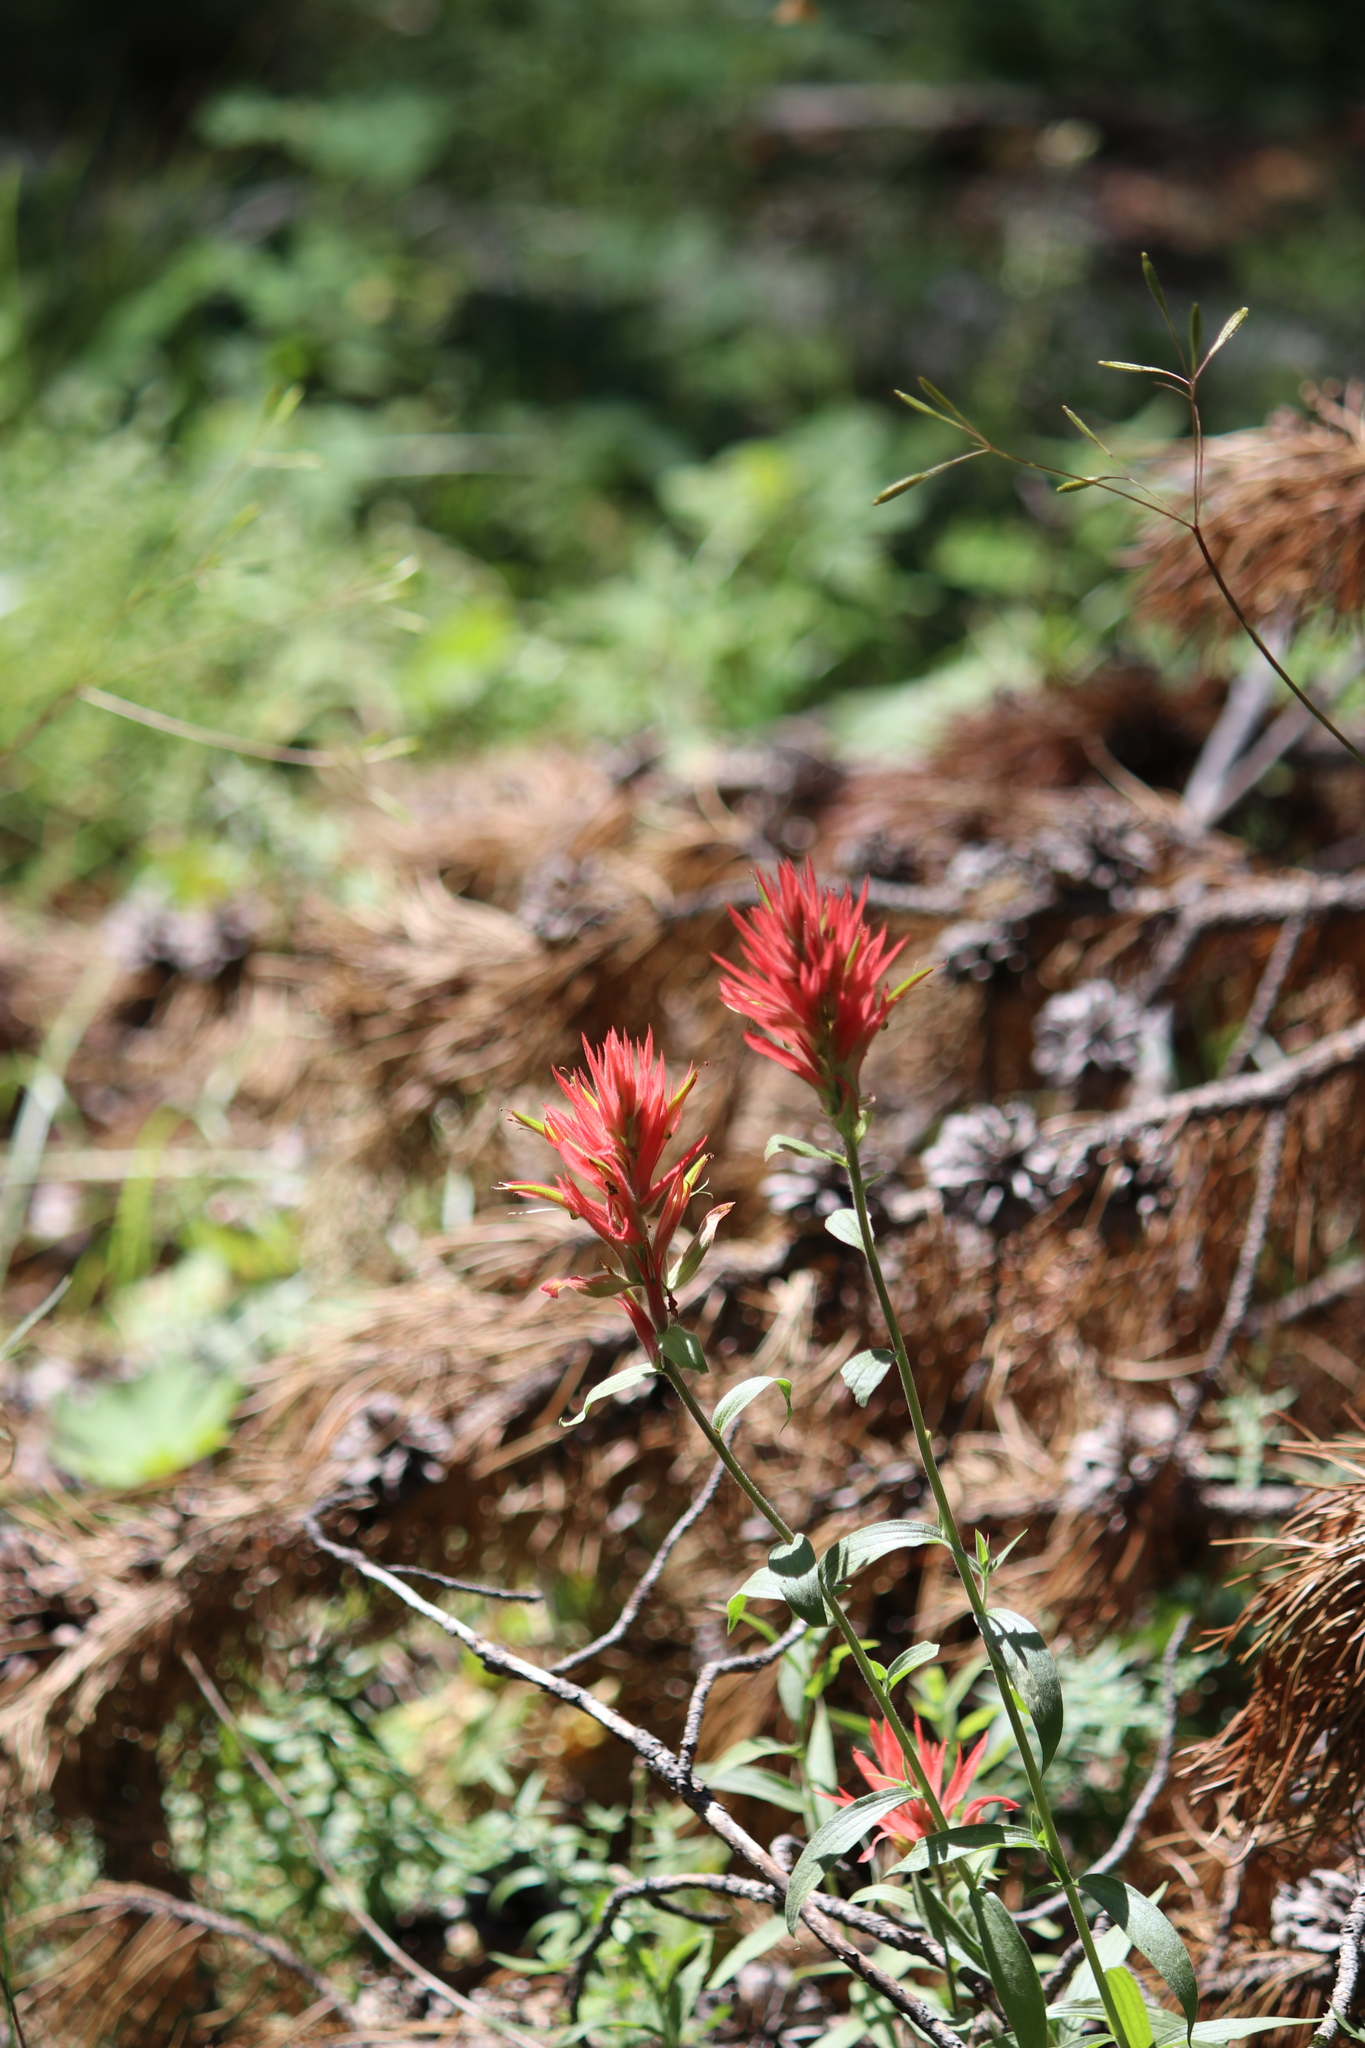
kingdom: Plantae
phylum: Tracheophyta
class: Magnoliopsida
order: Lamiales
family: Orobanchaceae
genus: Castilleja
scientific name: Castilleja linariifolia
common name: Wyoming paintbrush
